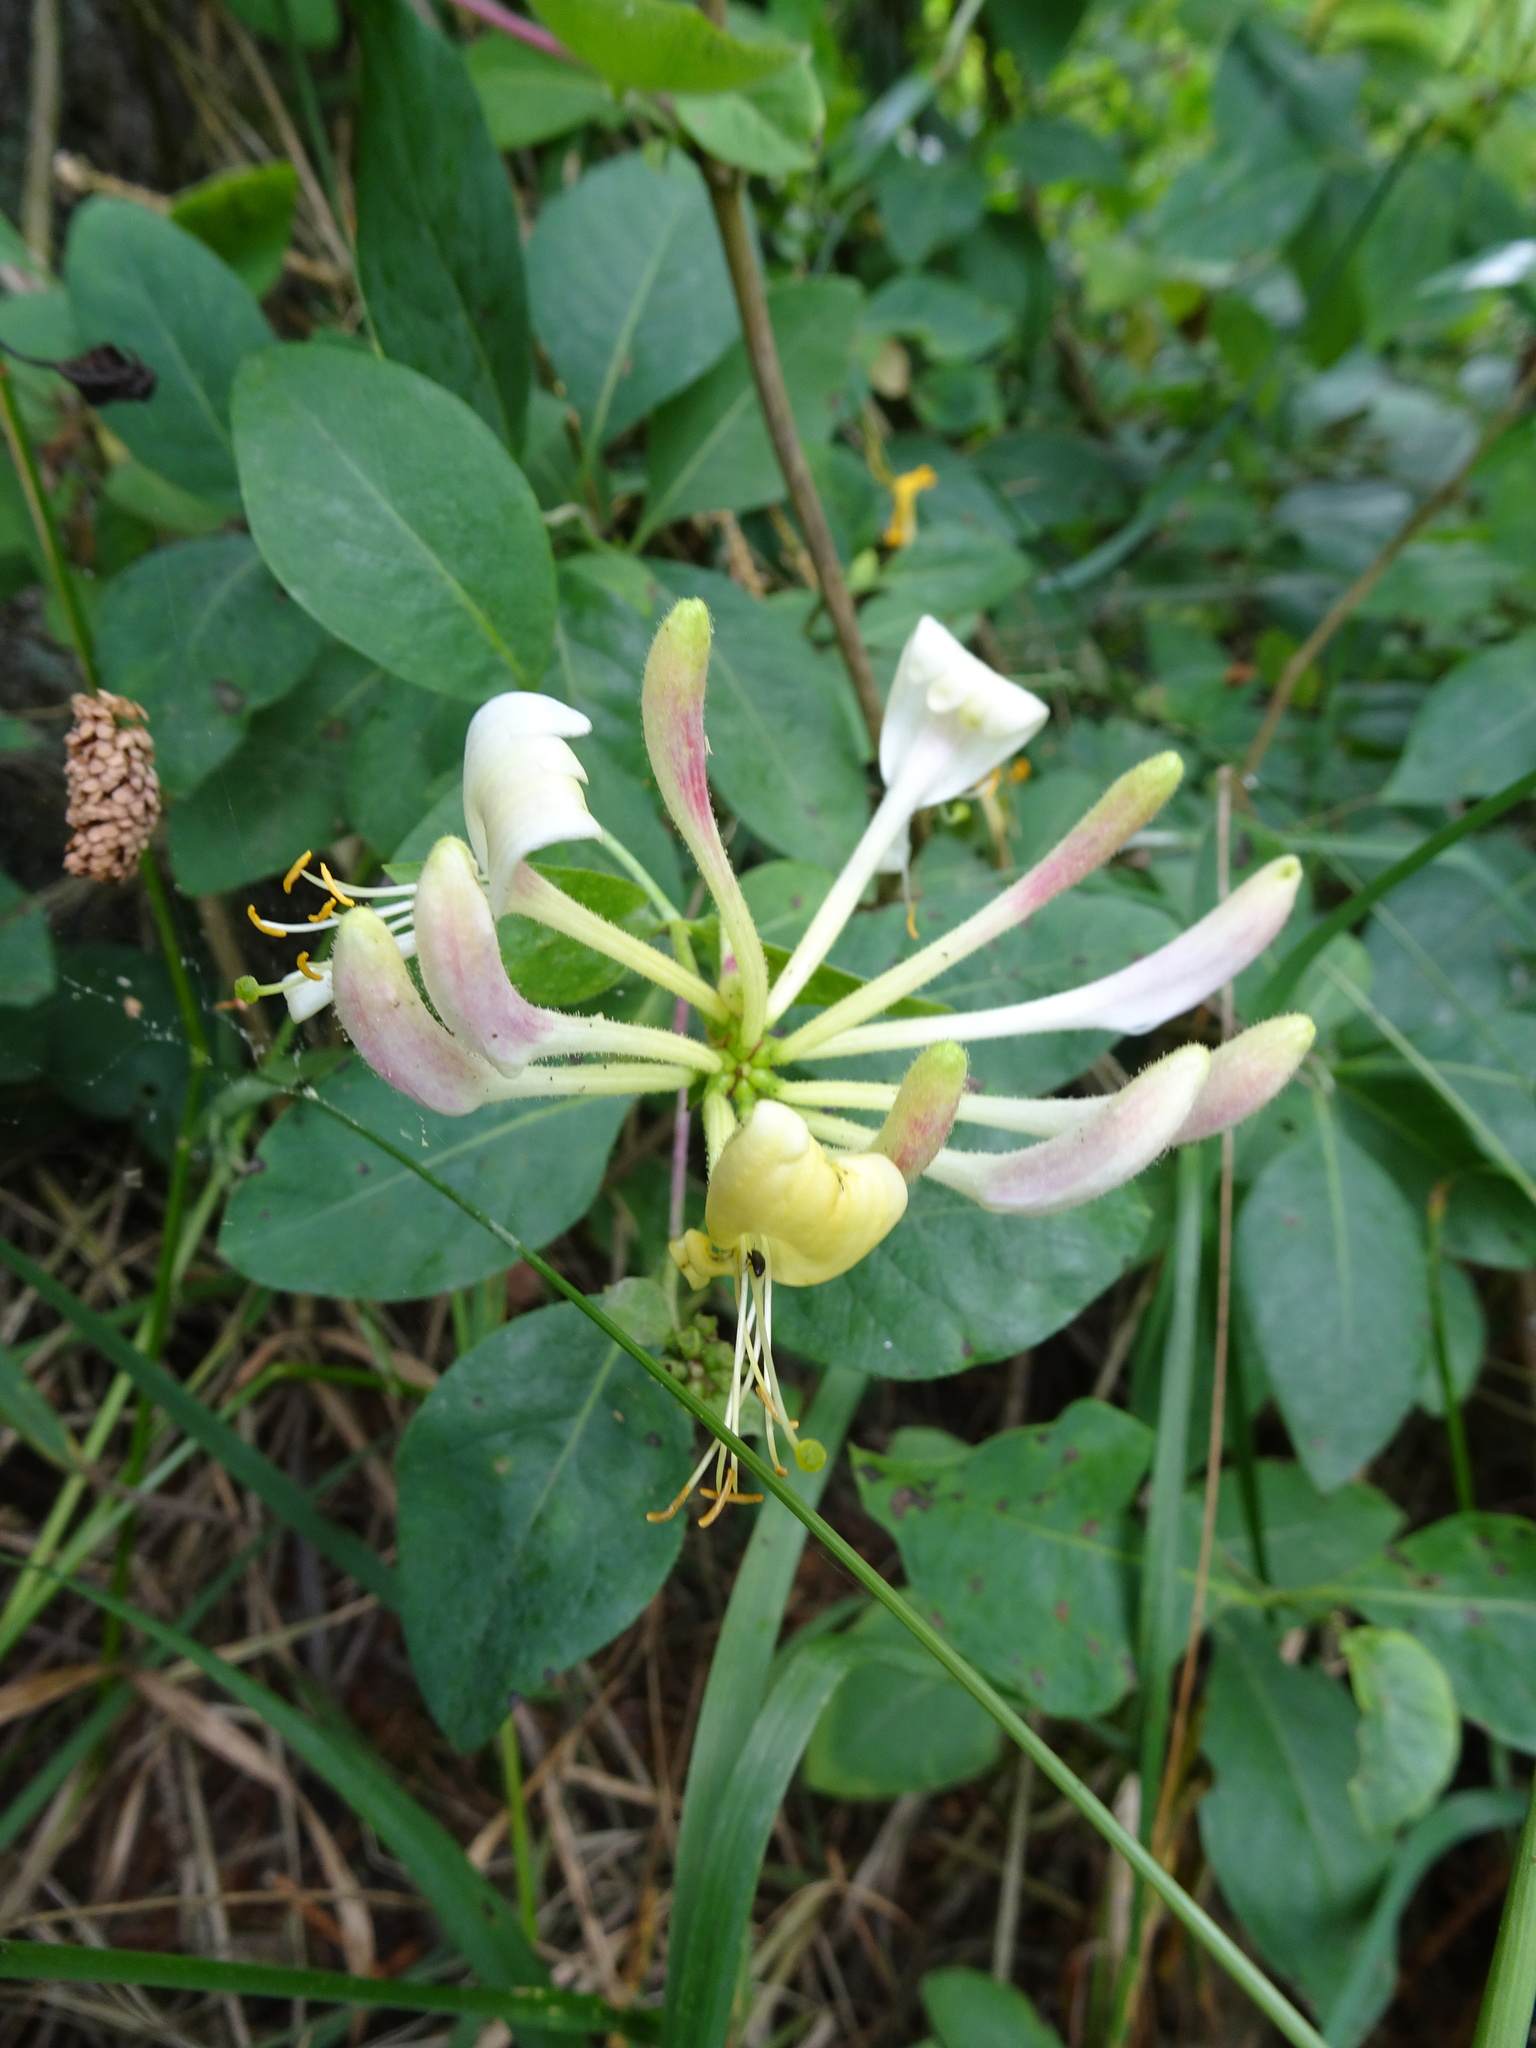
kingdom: Plantae
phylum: Tracheophyta
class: Magnoliopsida
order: Dipsacales
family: Caprifoliaceae
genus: Lonicera
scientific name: Lonicera periclymenum
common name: European honeysuckle
